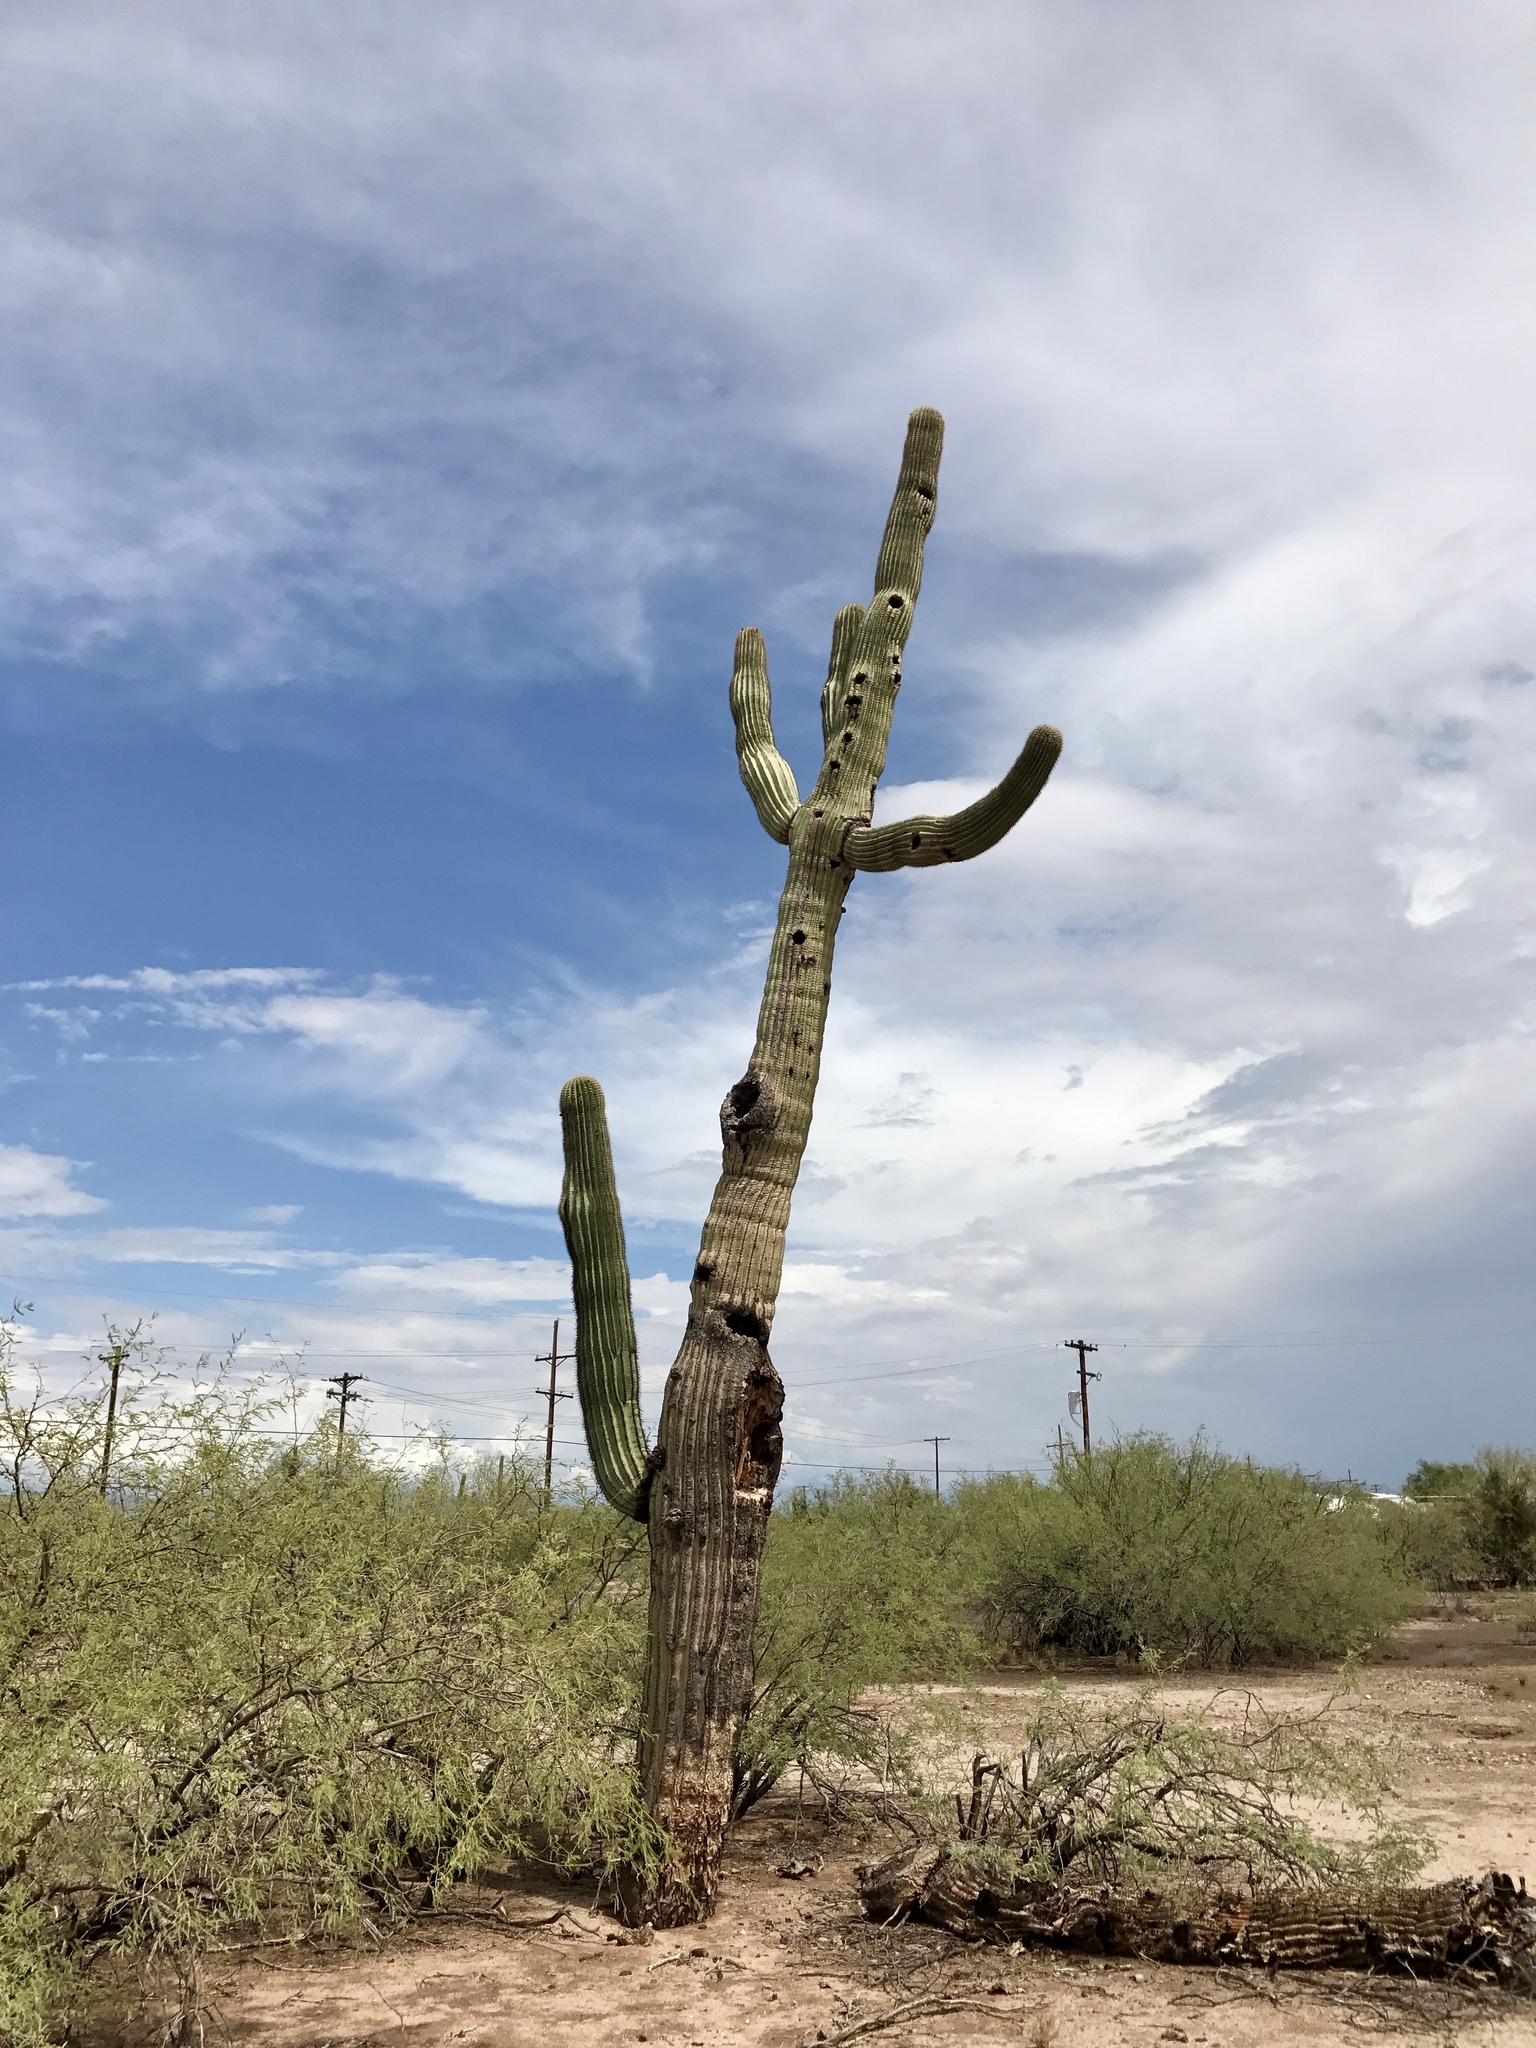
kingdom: Plantae
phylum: Tracheophyta
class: Magnoliopsida
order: Caryophyllales
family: Cactaceae
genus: Carnegiea
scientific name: Carnegiea gigantea
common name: Saguaro
